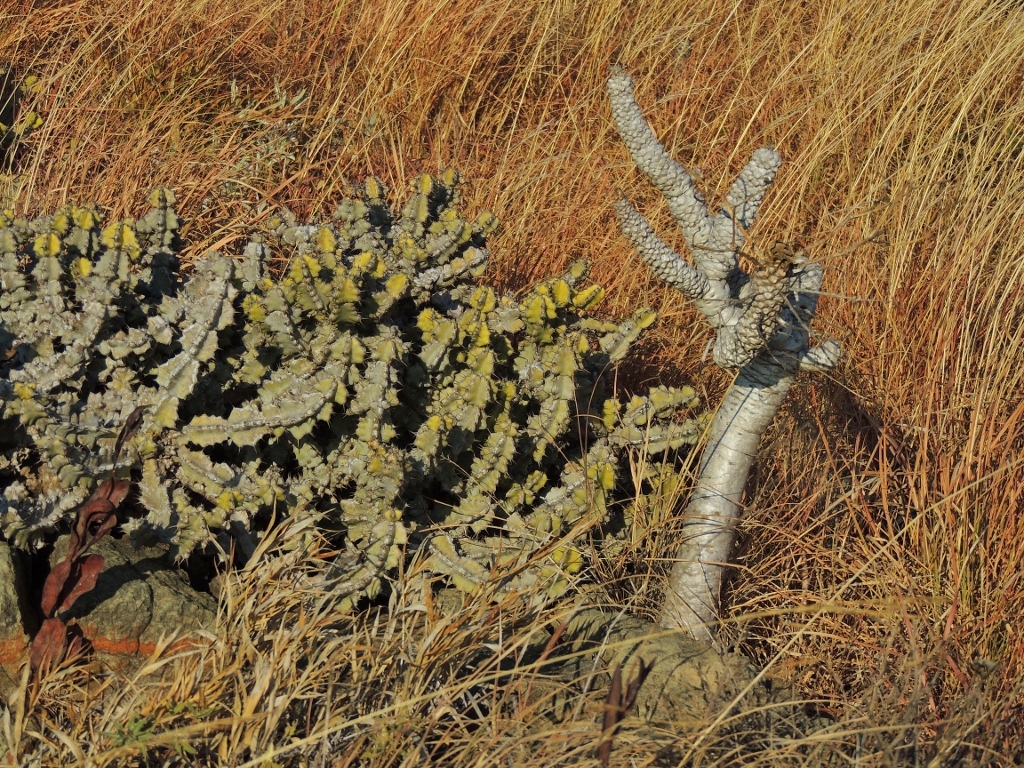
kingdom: Plantae
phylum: Tracheophyta
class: Magnoliopsida
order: Malpighiales
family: Euphorbiaceae
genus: Euphorbia
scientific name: Euphorbia wildii
